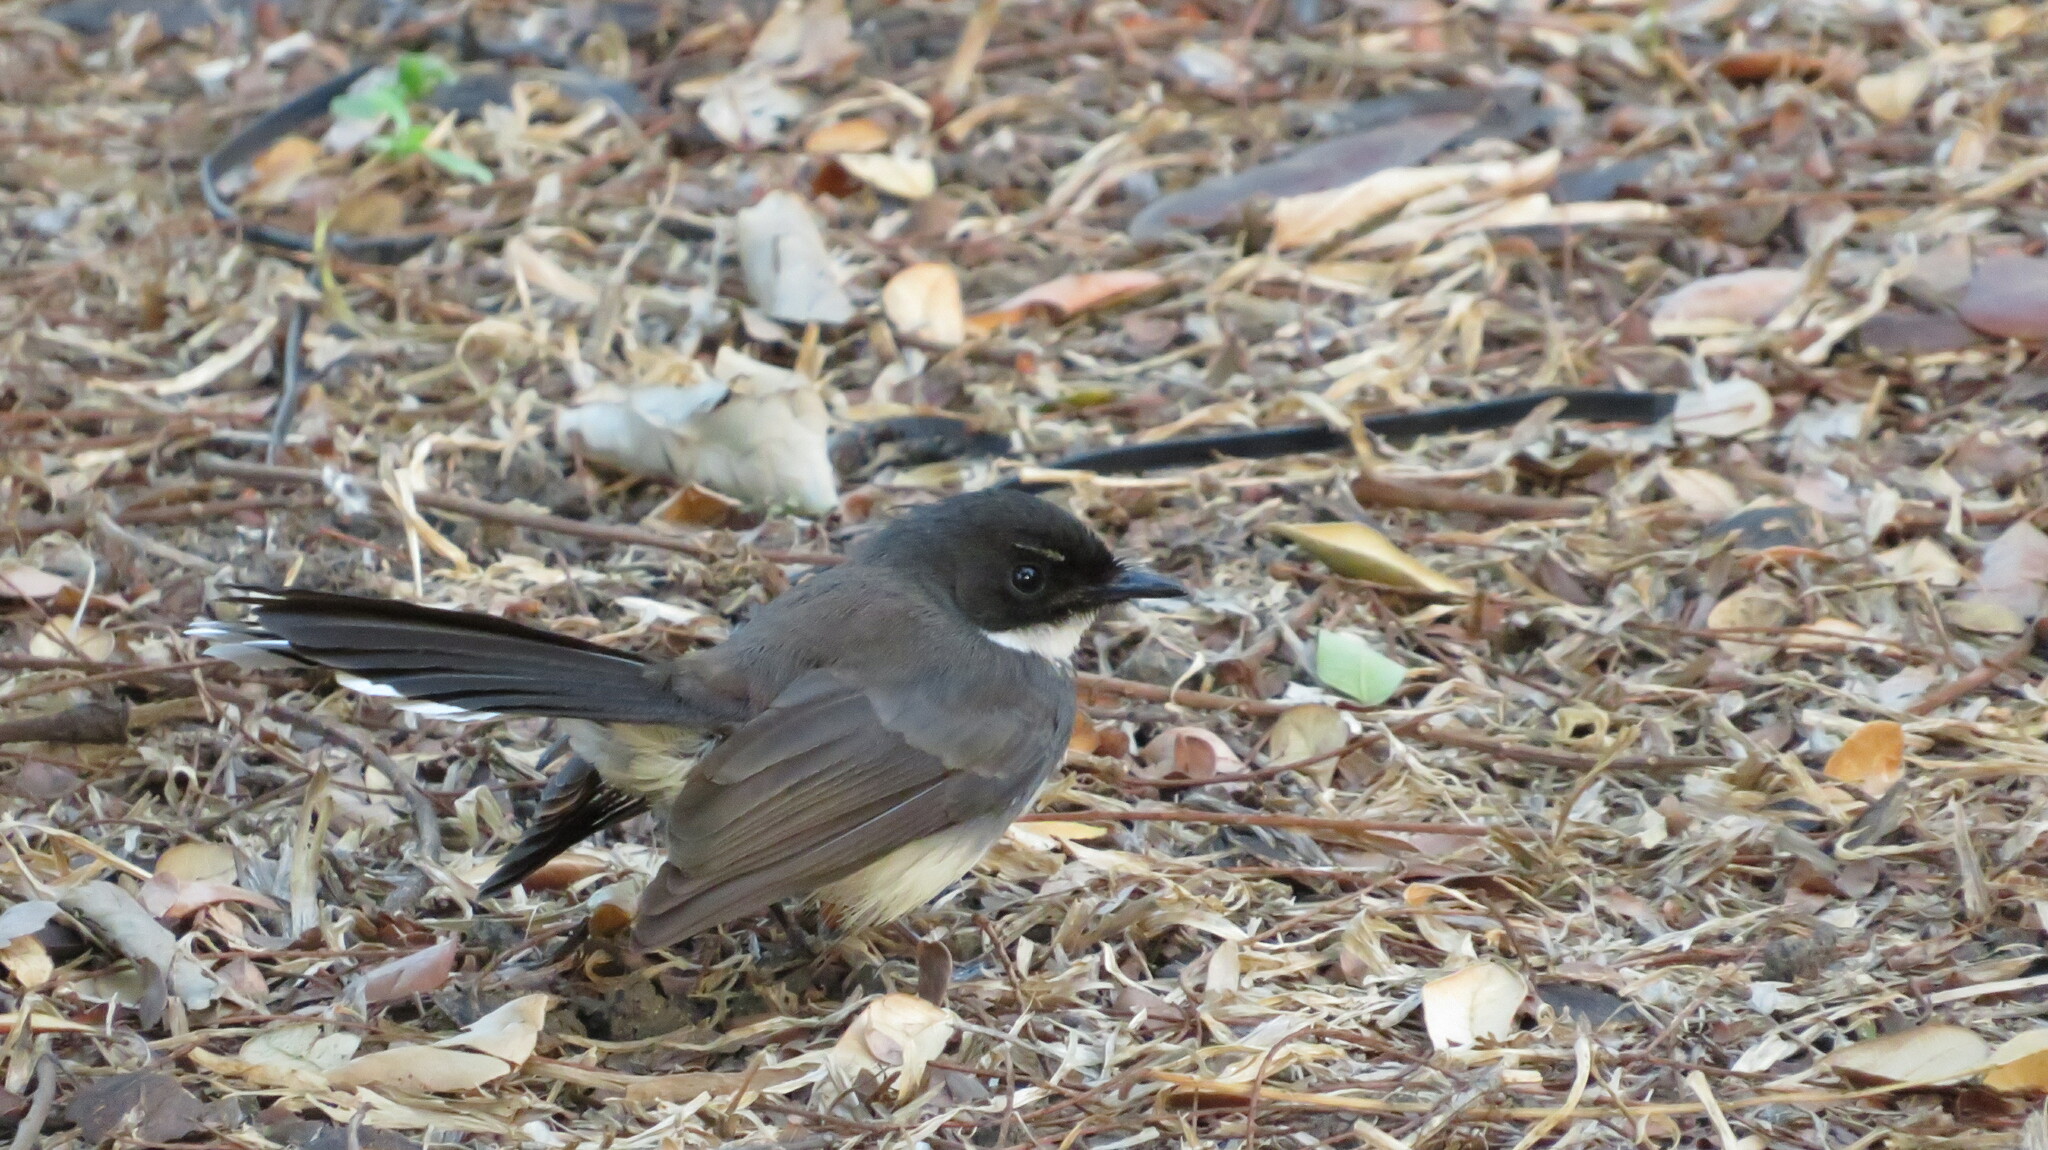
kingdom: Animalia
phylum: Chordata
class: Aves
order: Passeriformes
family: Rhipiduridae
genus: Rhipidura
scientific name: Rhipidura javanica
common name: Pied fantail
